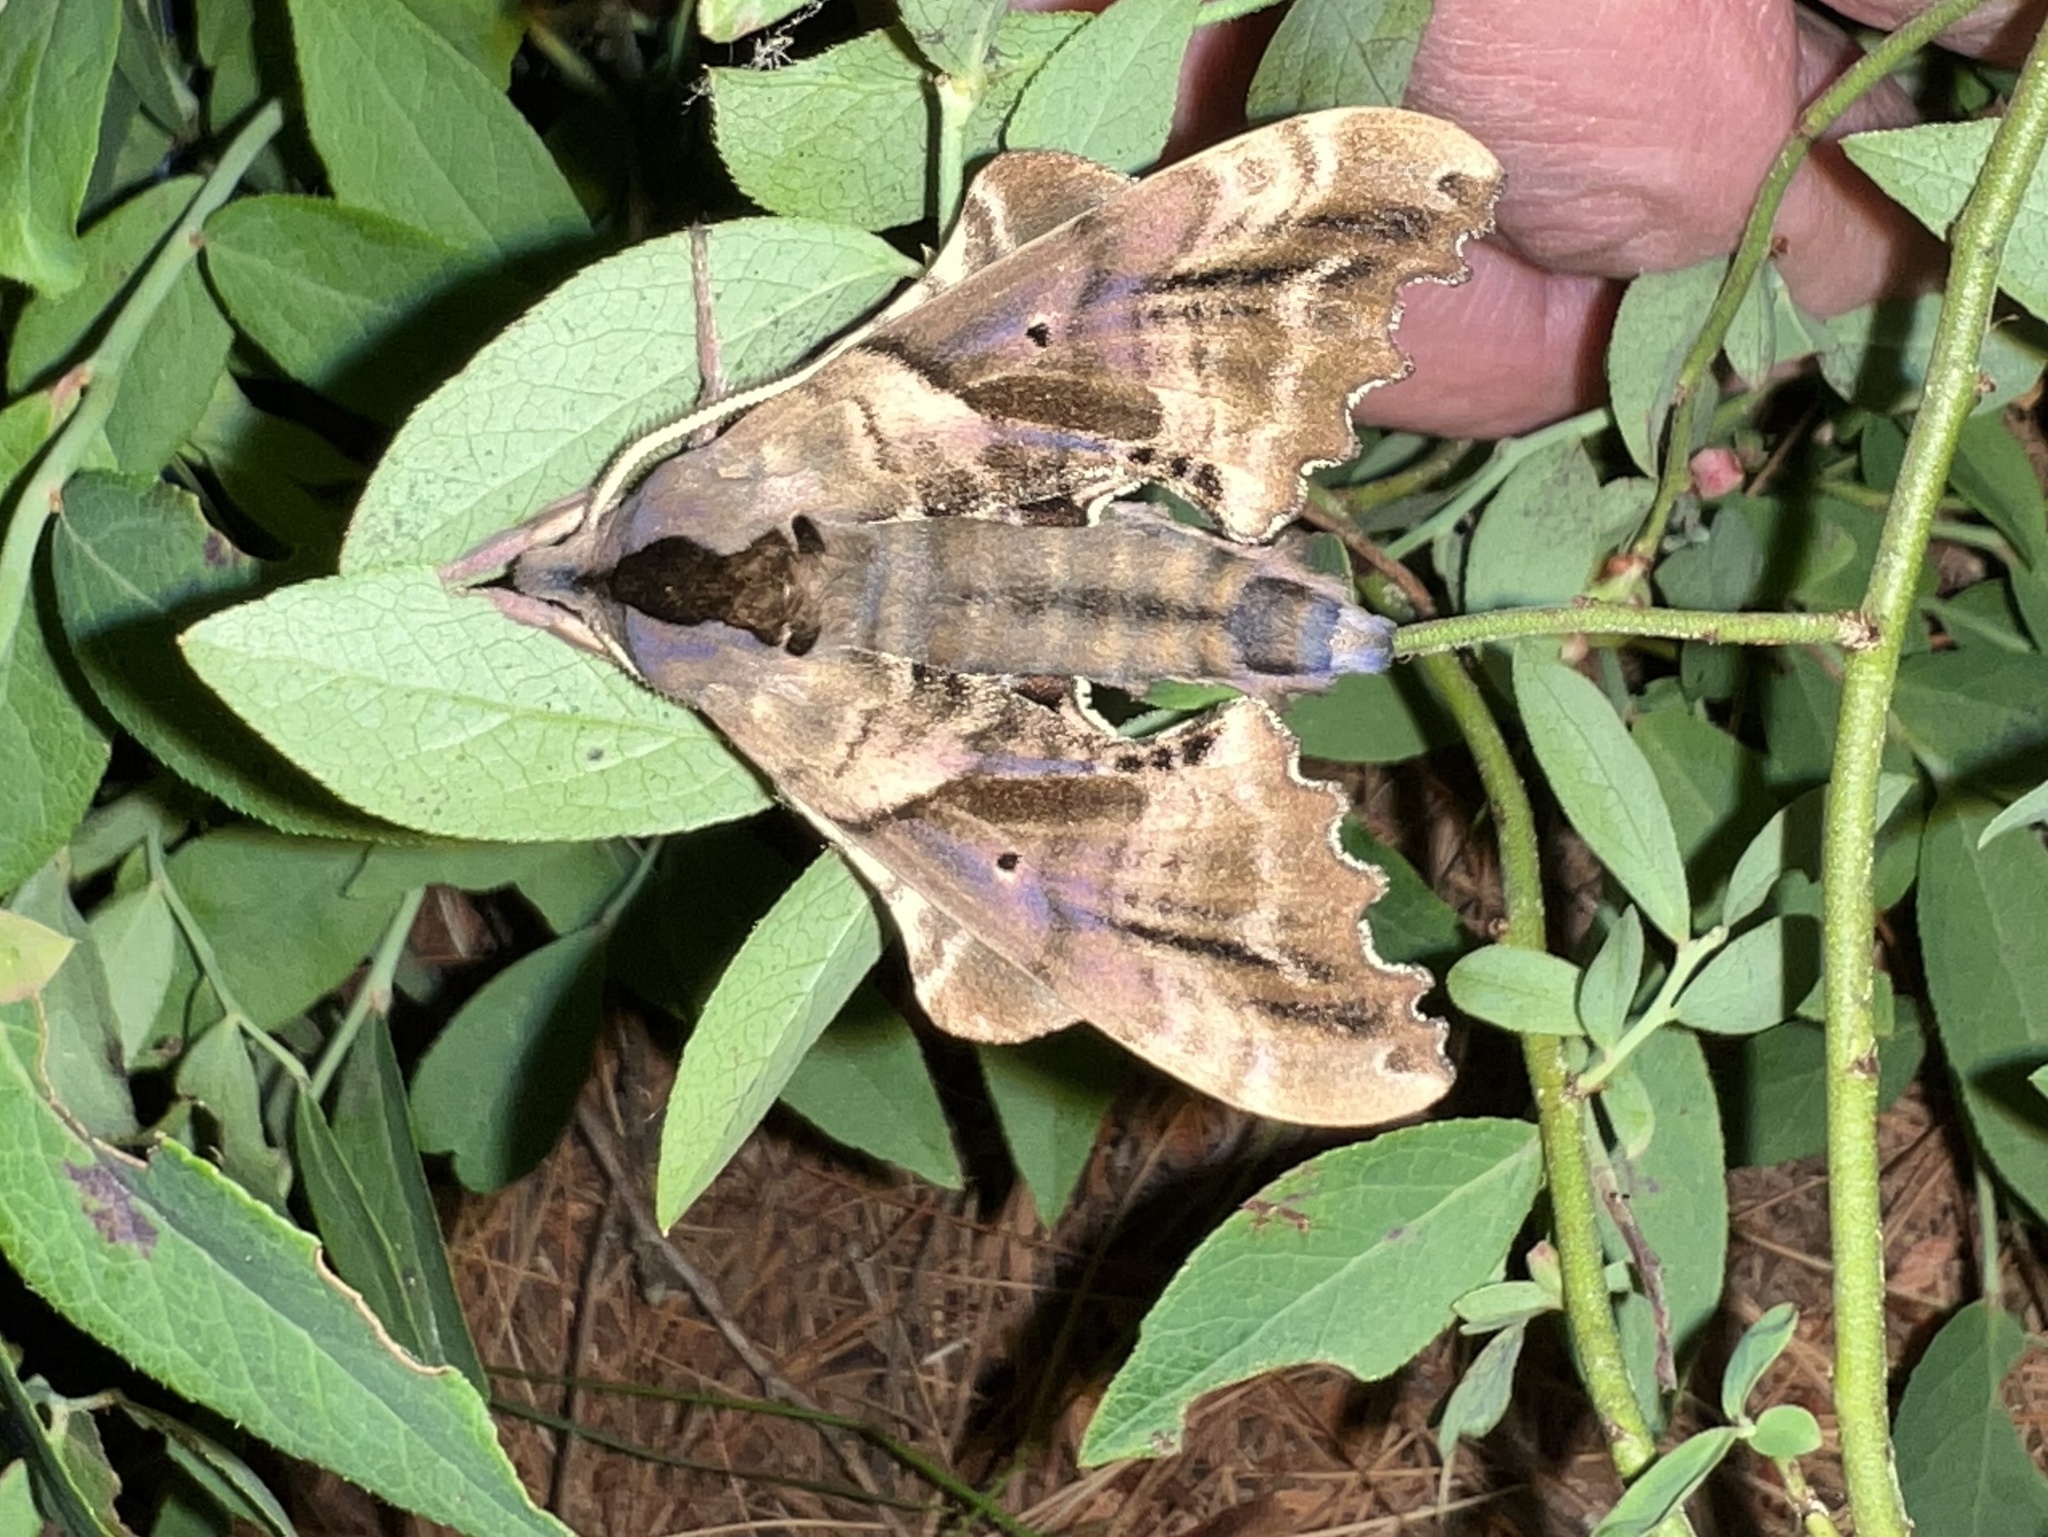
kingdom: Animalia
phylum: Arthropoda
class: Insecta
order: Lepidoptera
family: Sphingidae
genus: Paonias
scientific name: Paonias excaecata
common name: Blind-eyed sphinx
